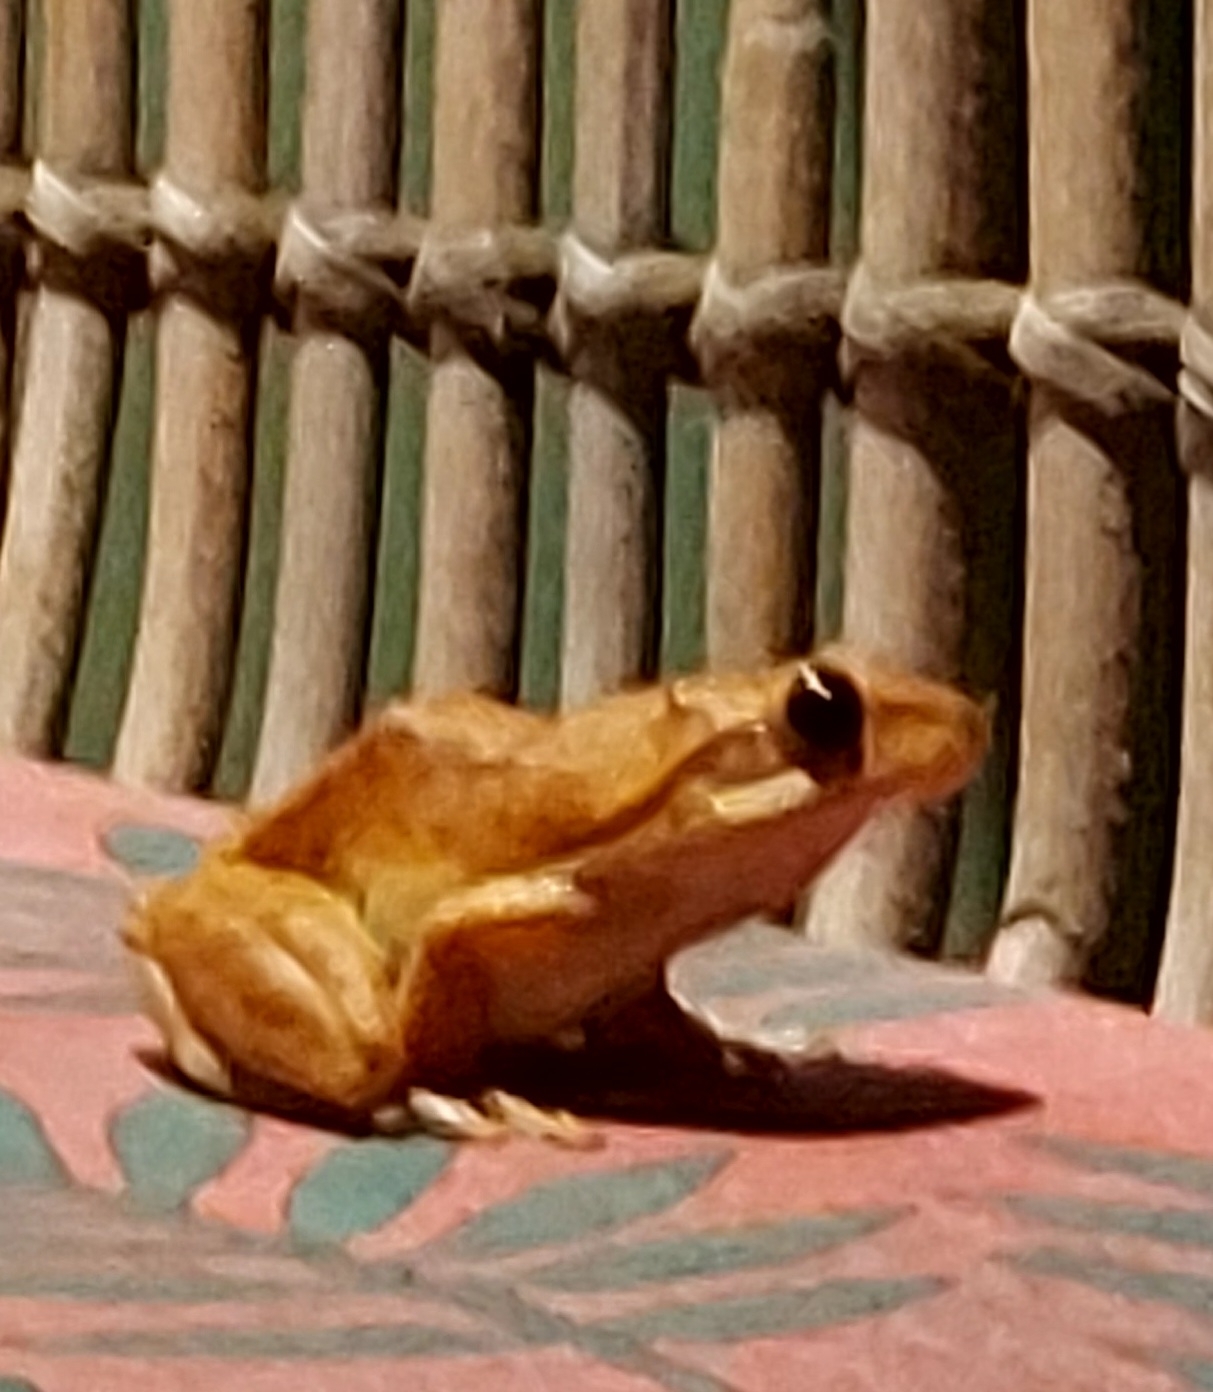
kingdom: Animalia
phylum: Chordata
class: Amphibia
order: Anura
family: Rhacophoridae
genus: Polypedates
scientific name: Polypedates maculatus
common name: Himalayan tree frog
